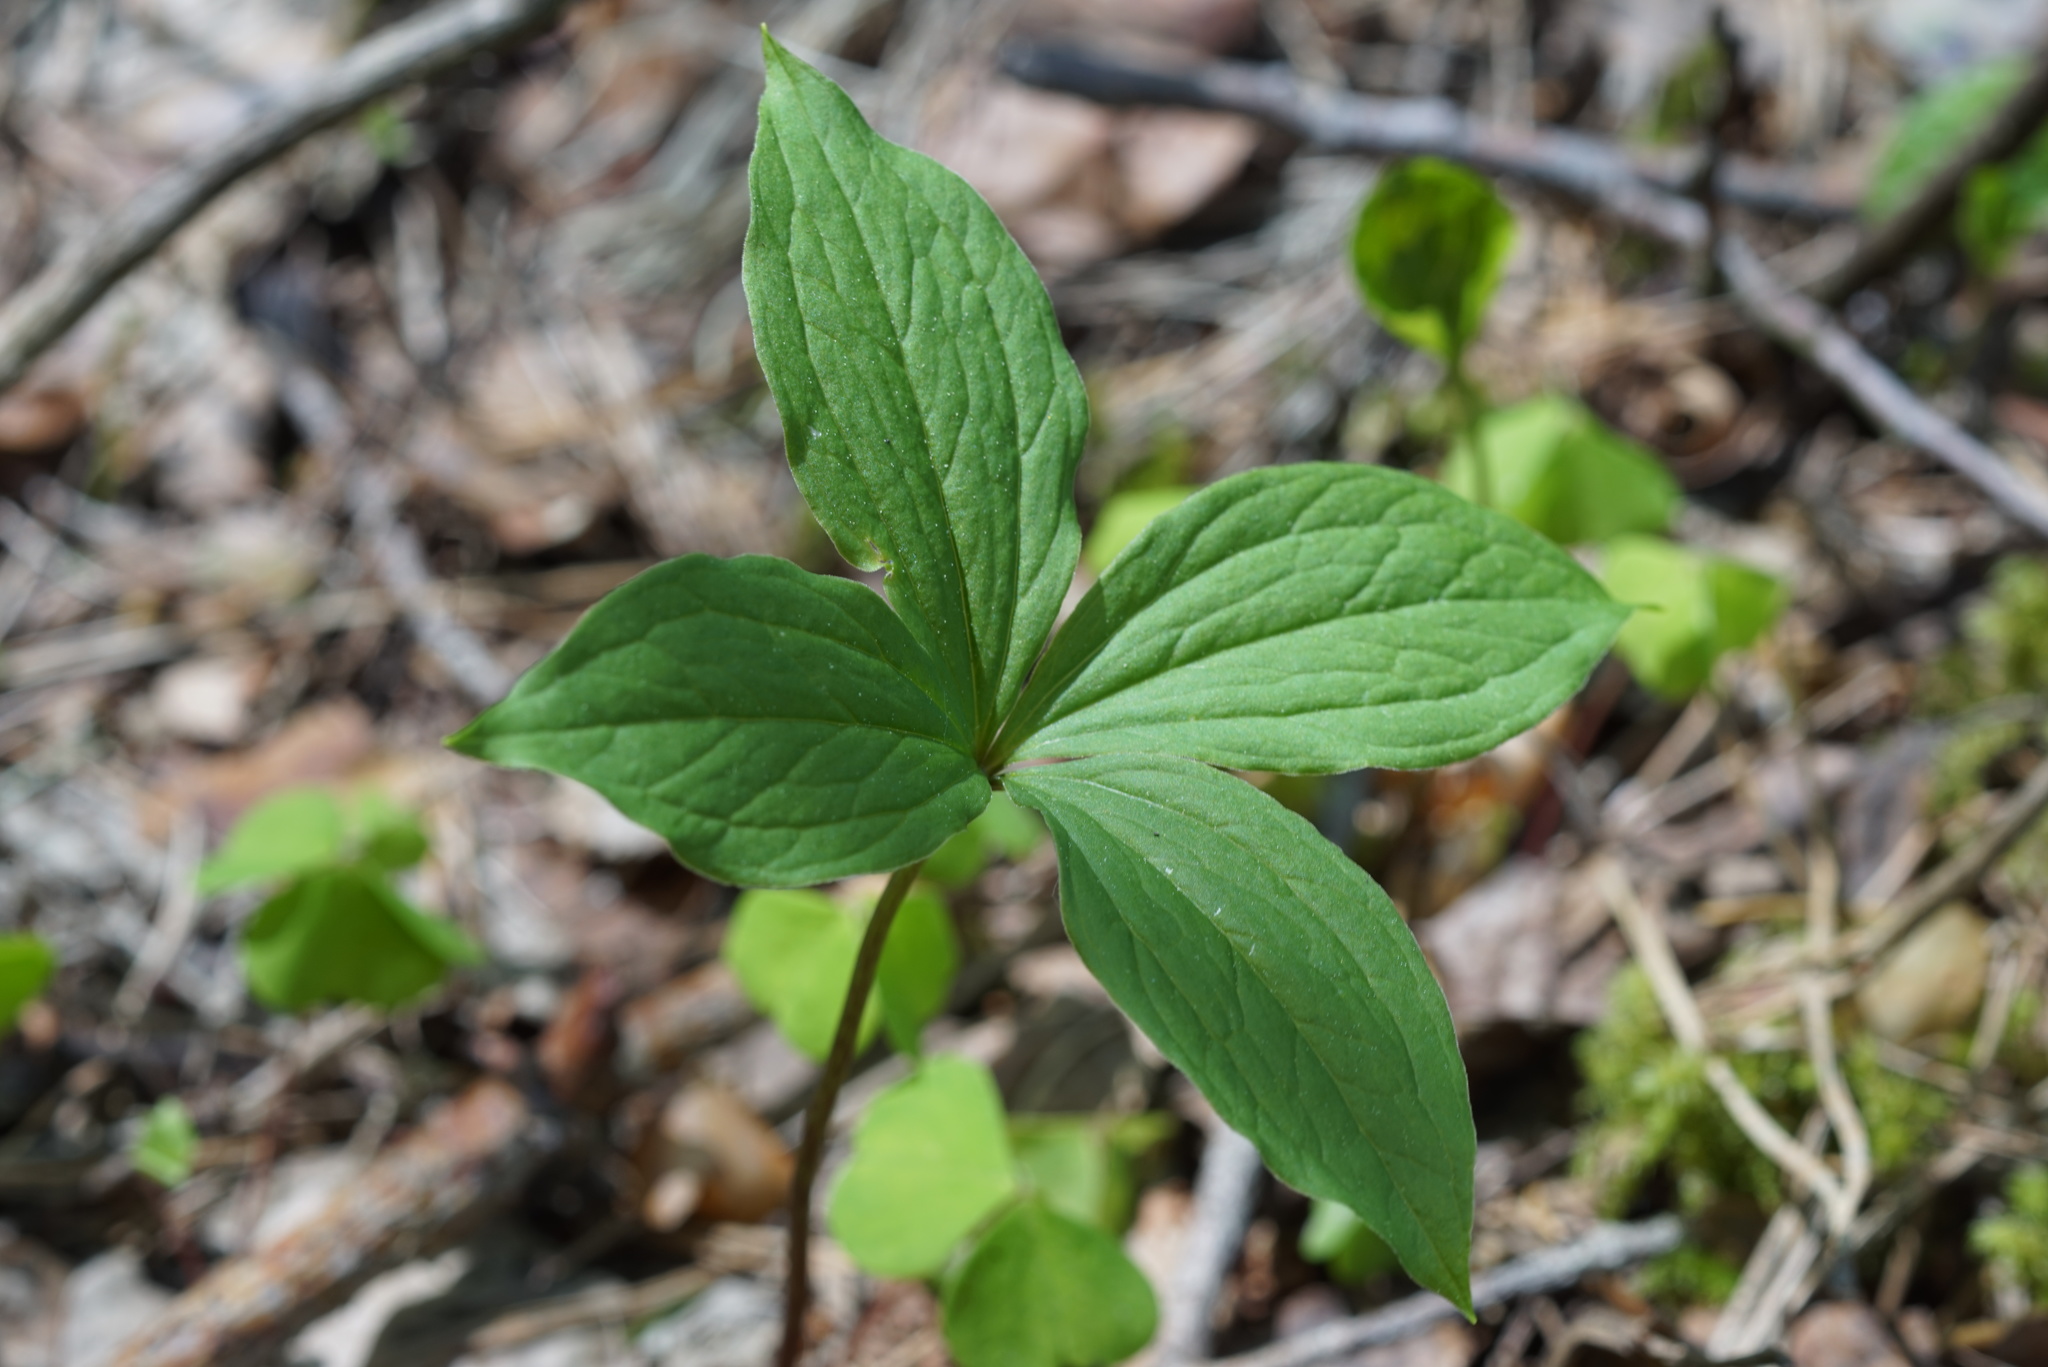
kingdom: Plantae
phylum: Tracheophyta
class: Liliopsida
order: Liliales
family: Melanthiaceae
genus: Paris
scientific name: Paris quadrifolia
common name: Herb-paris
